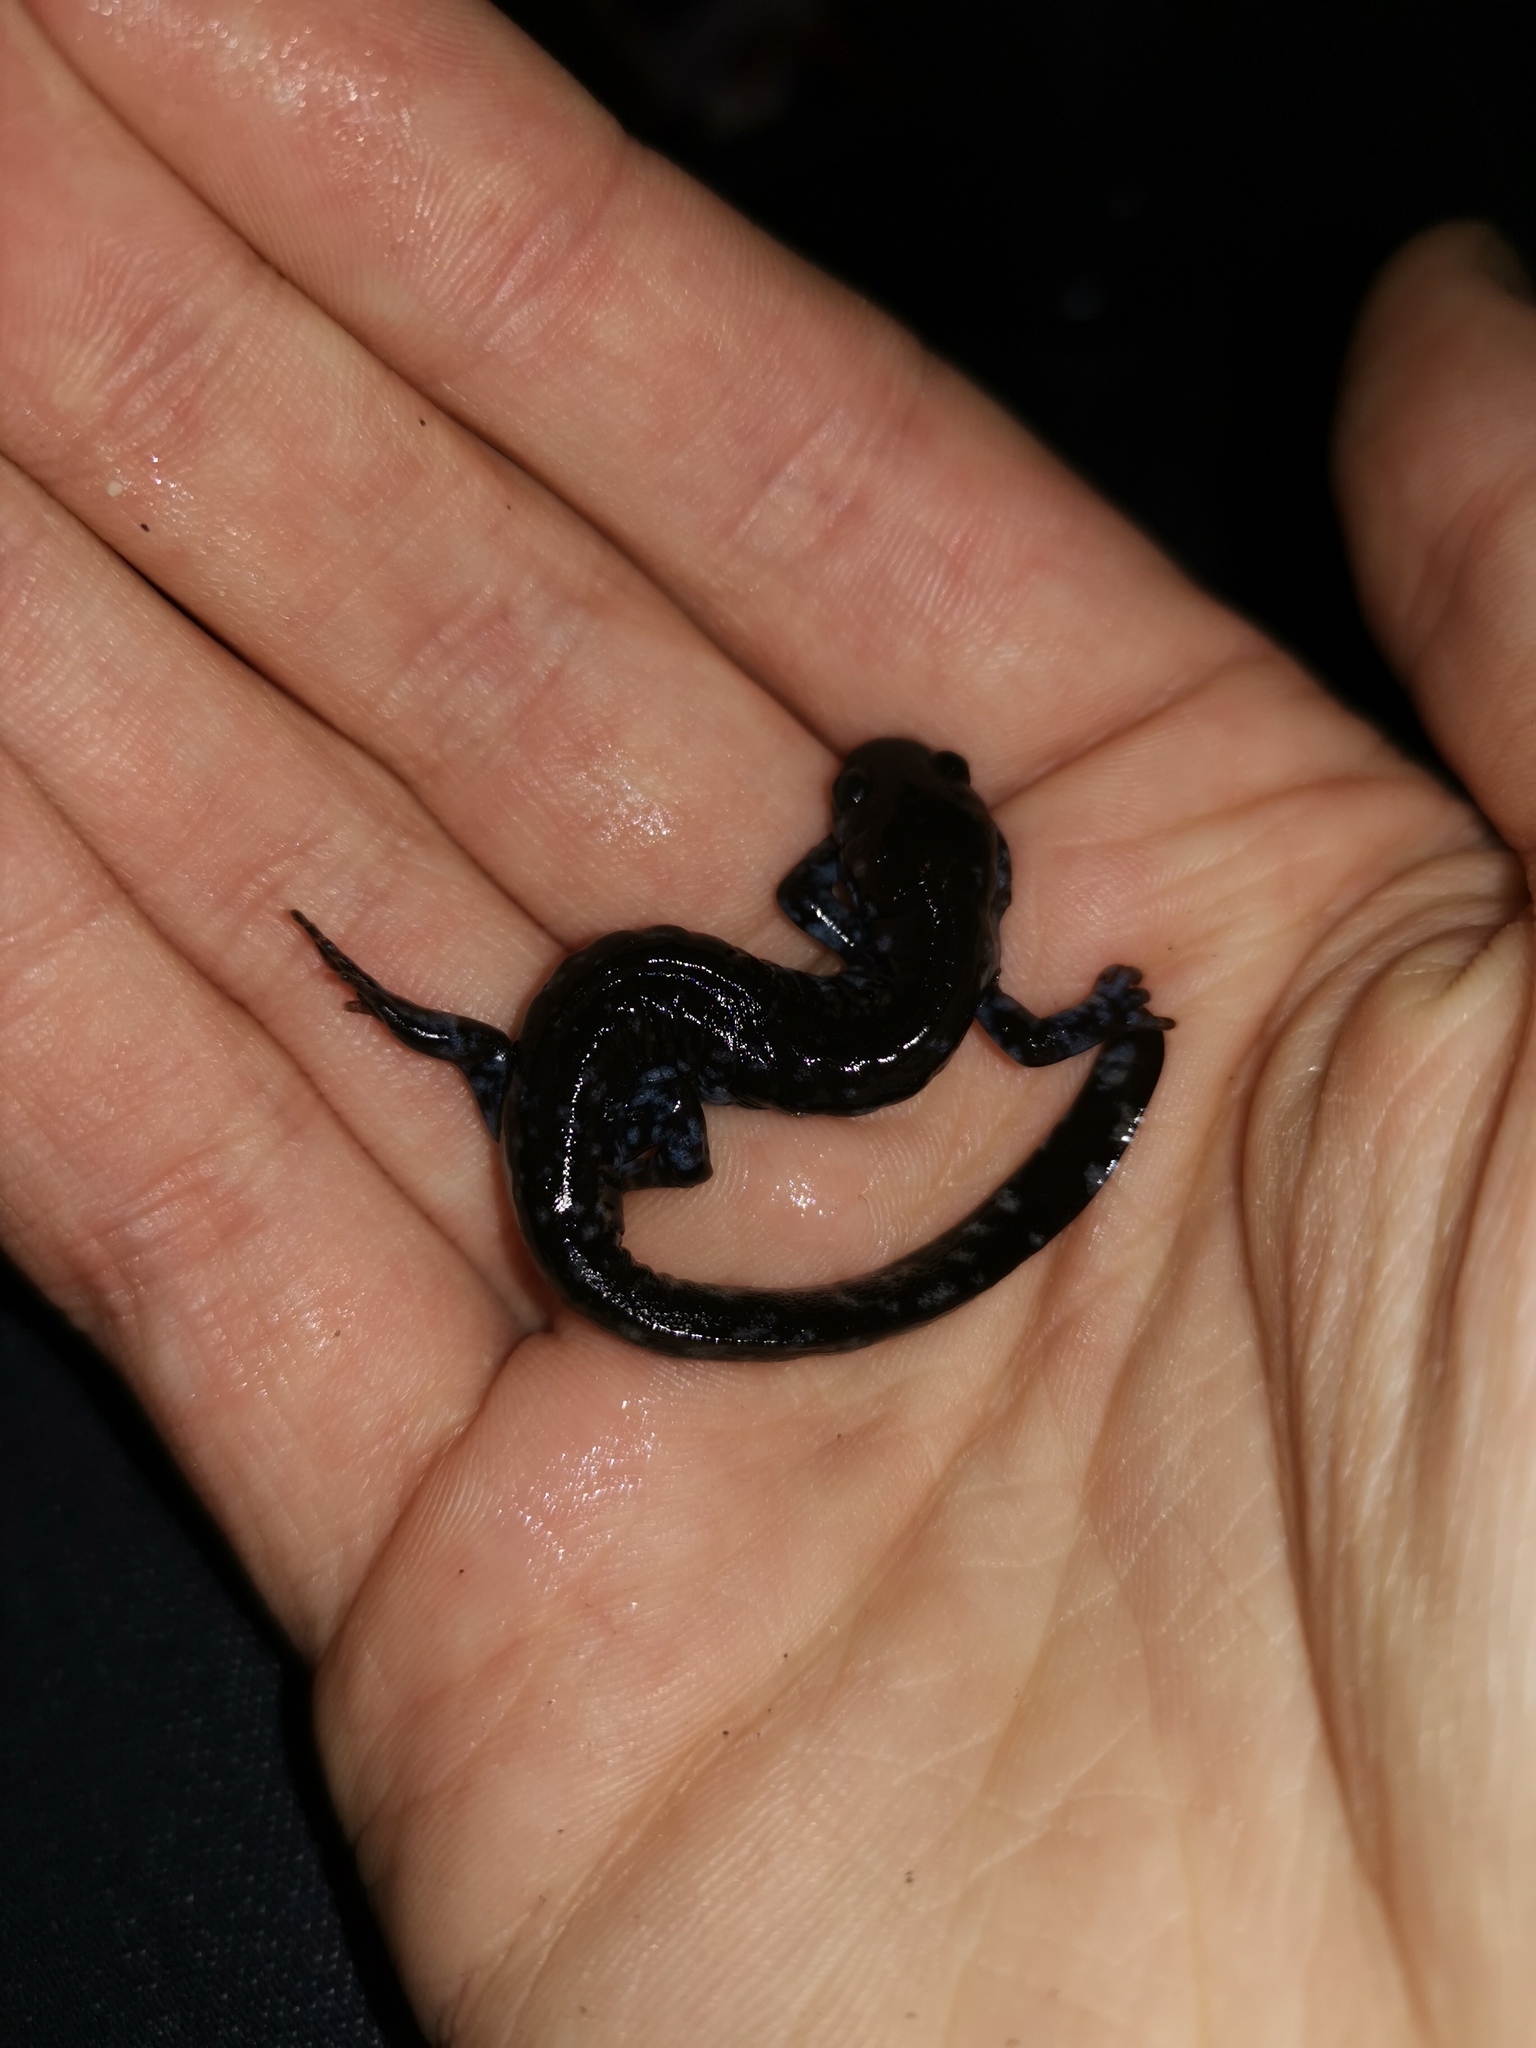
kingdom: Animalia
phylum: Chordata
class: Amphibia
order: Caudata
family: Ambystomatidae
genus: Ambystoma
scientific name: Ambystoma laterale
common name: Blue-spotted salamander
